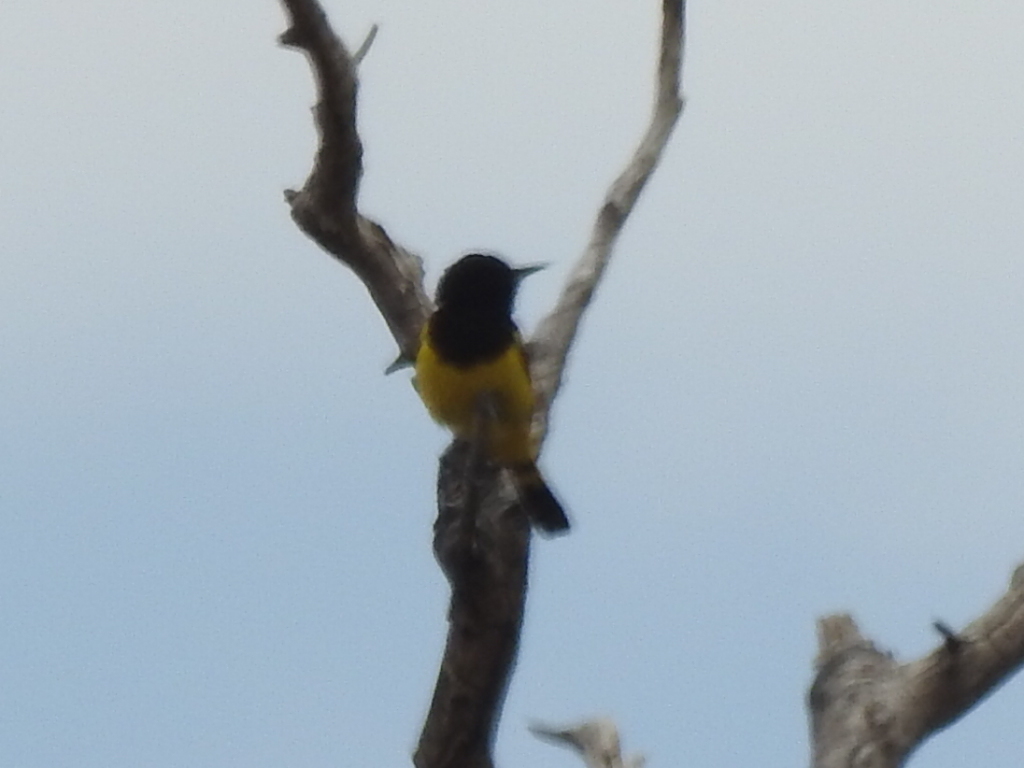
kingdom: Animalia
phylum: Chordata
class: Aves
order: Passeriformes
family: Icteridae
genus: Icterus
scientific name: Icterus parisorum
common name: Scott's oriole
